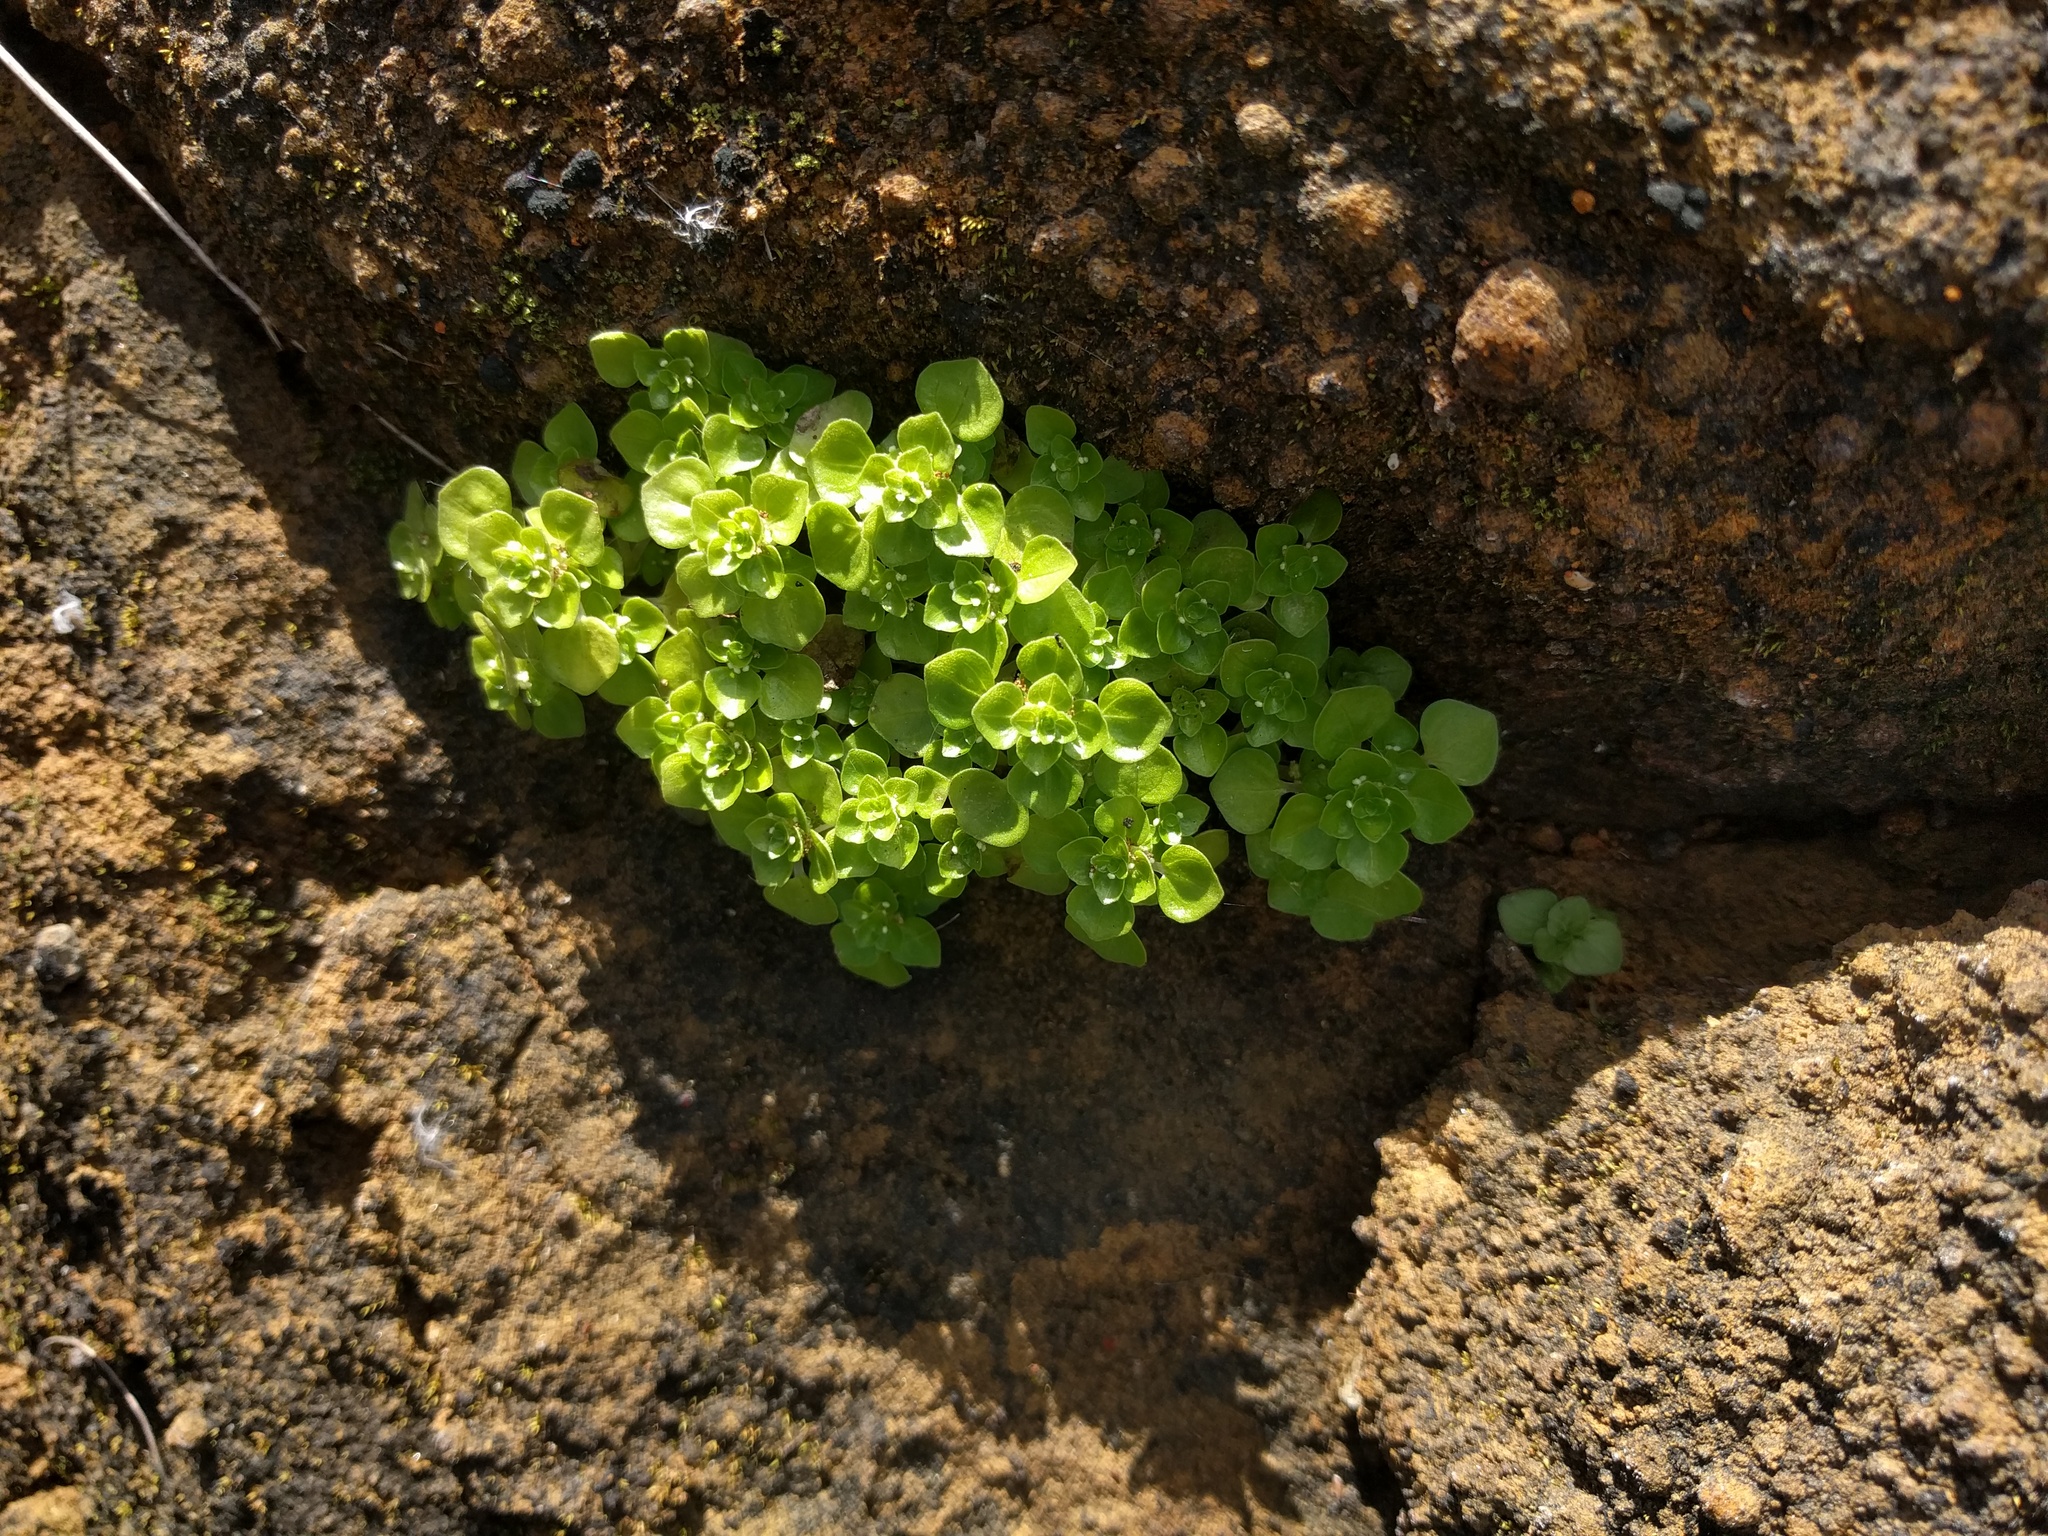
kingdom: Plantae
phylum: Tracheophyta
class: Magnoliopsida
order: Rosales
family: Urticaceae
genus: Pilea
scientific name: Pilea peploides
